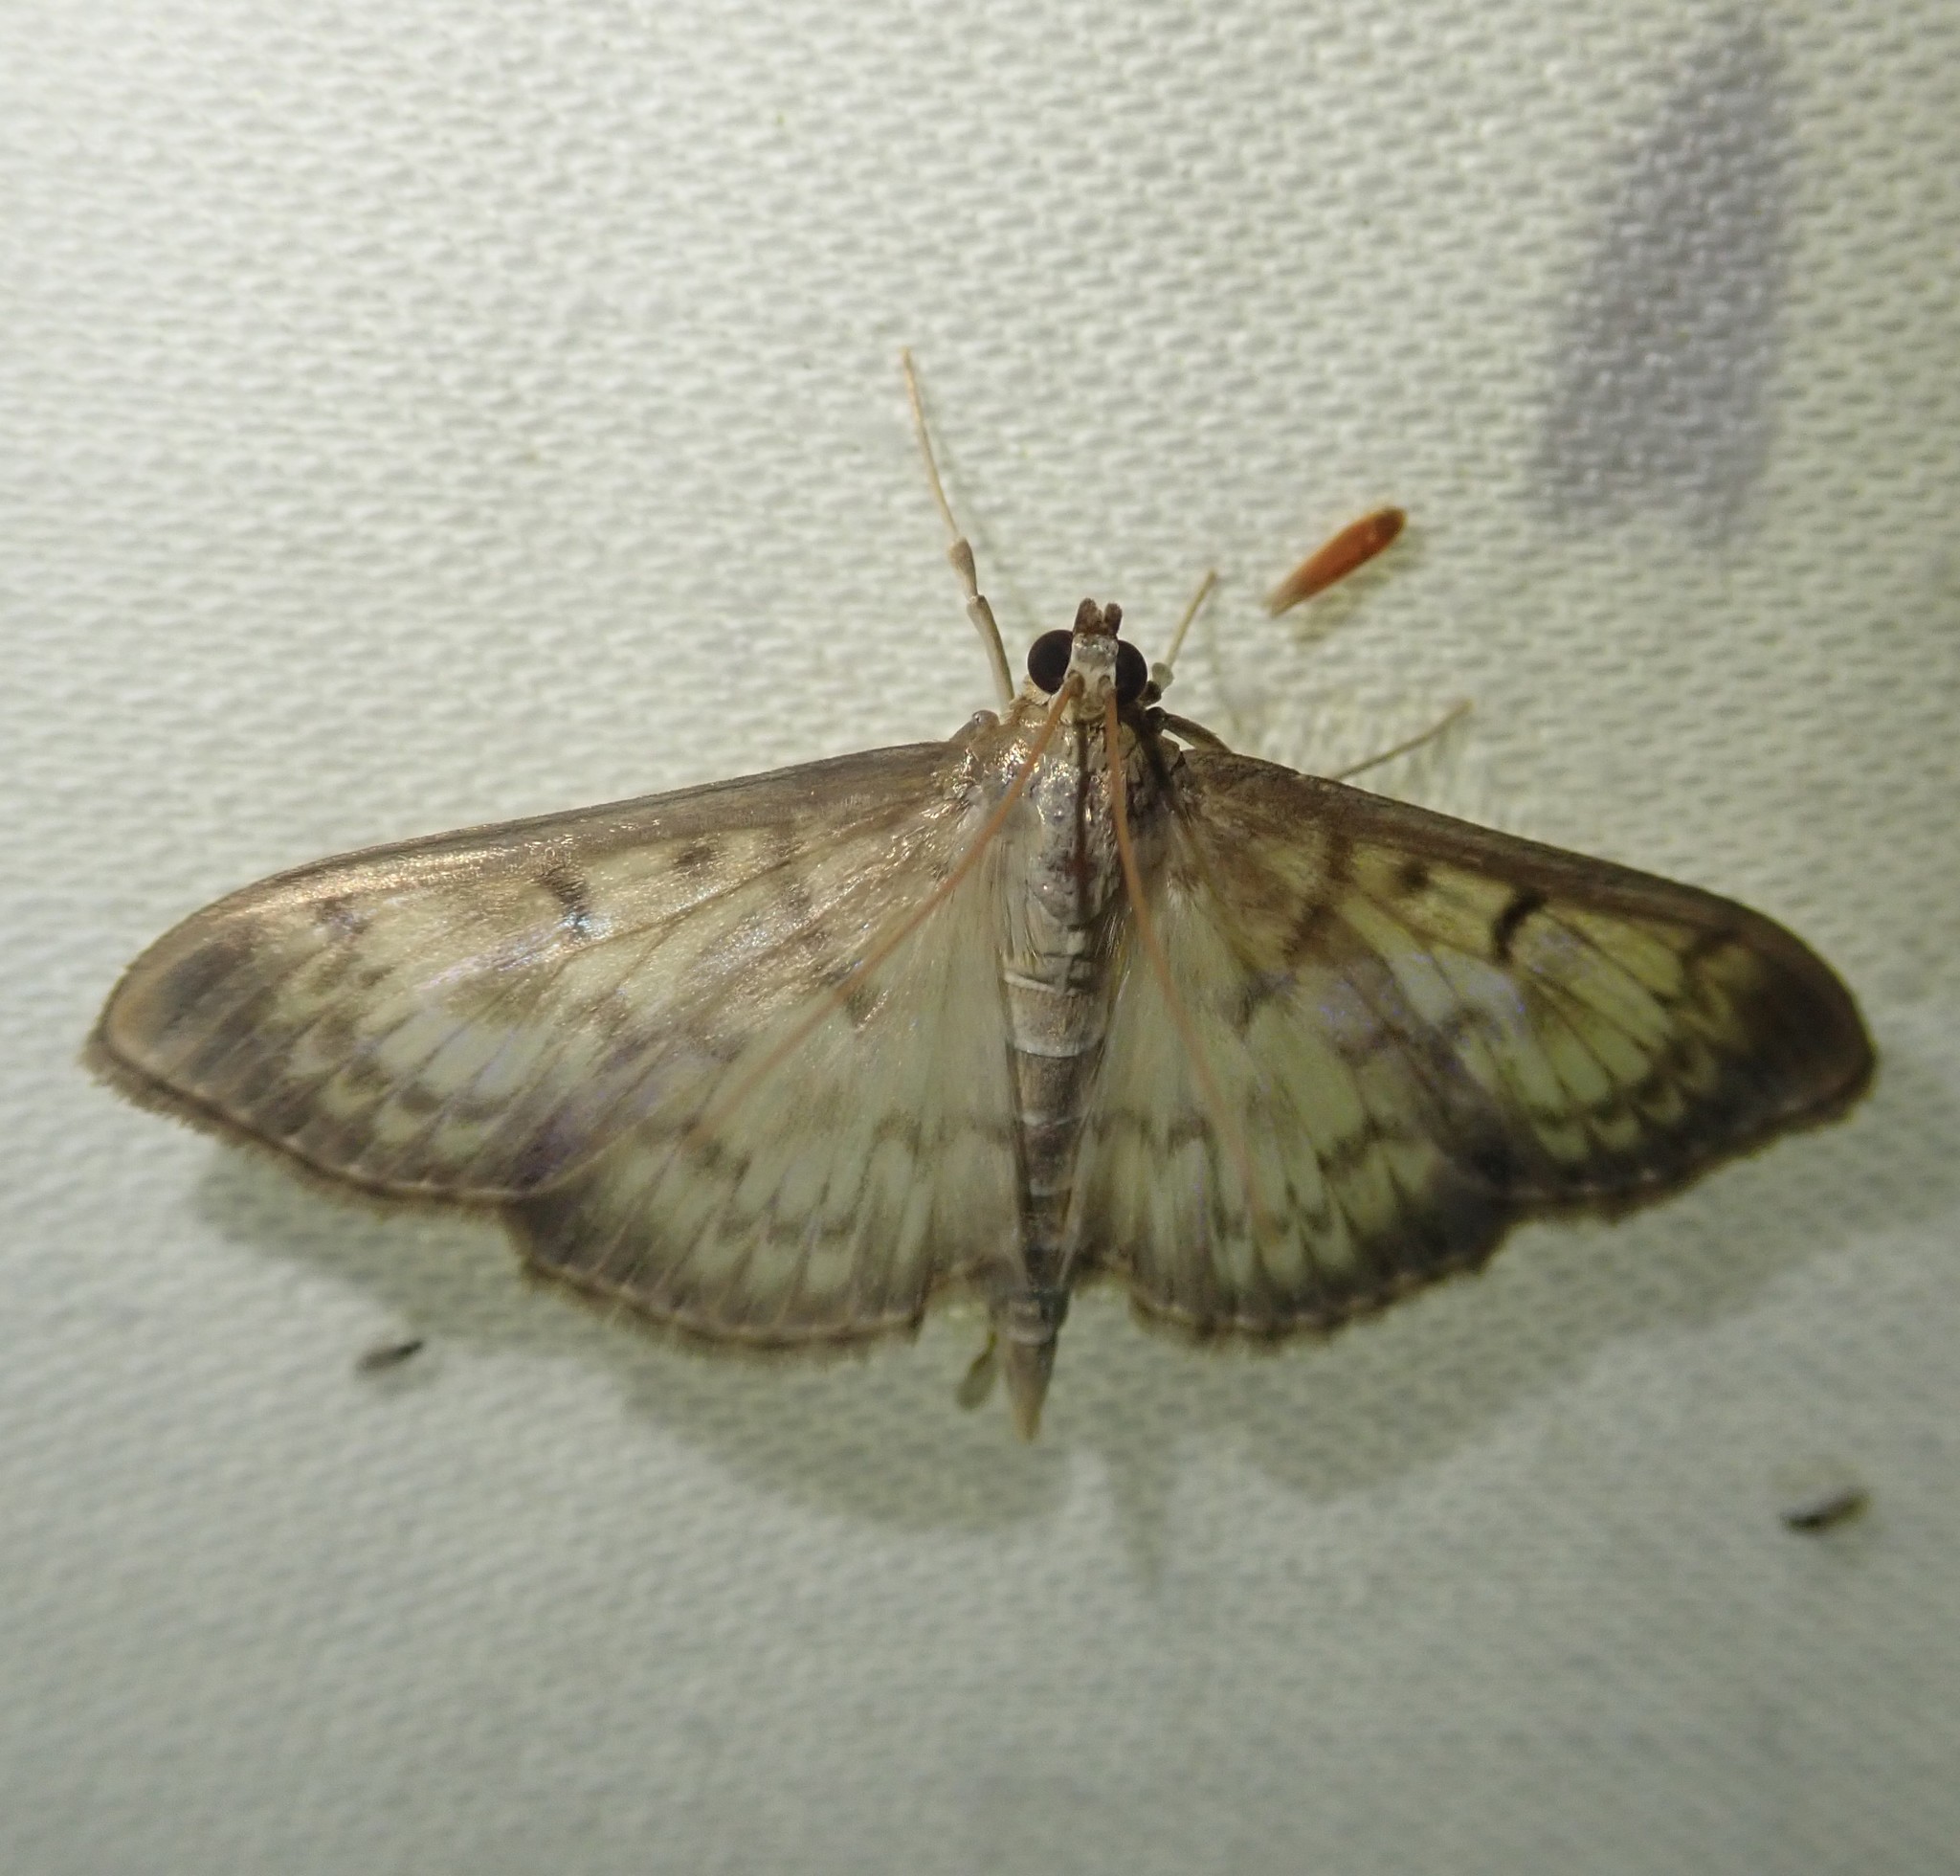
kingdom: Animalia
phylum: Arthropoda
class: Insecta
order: Lepidoptera
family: Crambidae
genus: Patania
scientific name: Patania ruralis
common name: Mother of pearl
